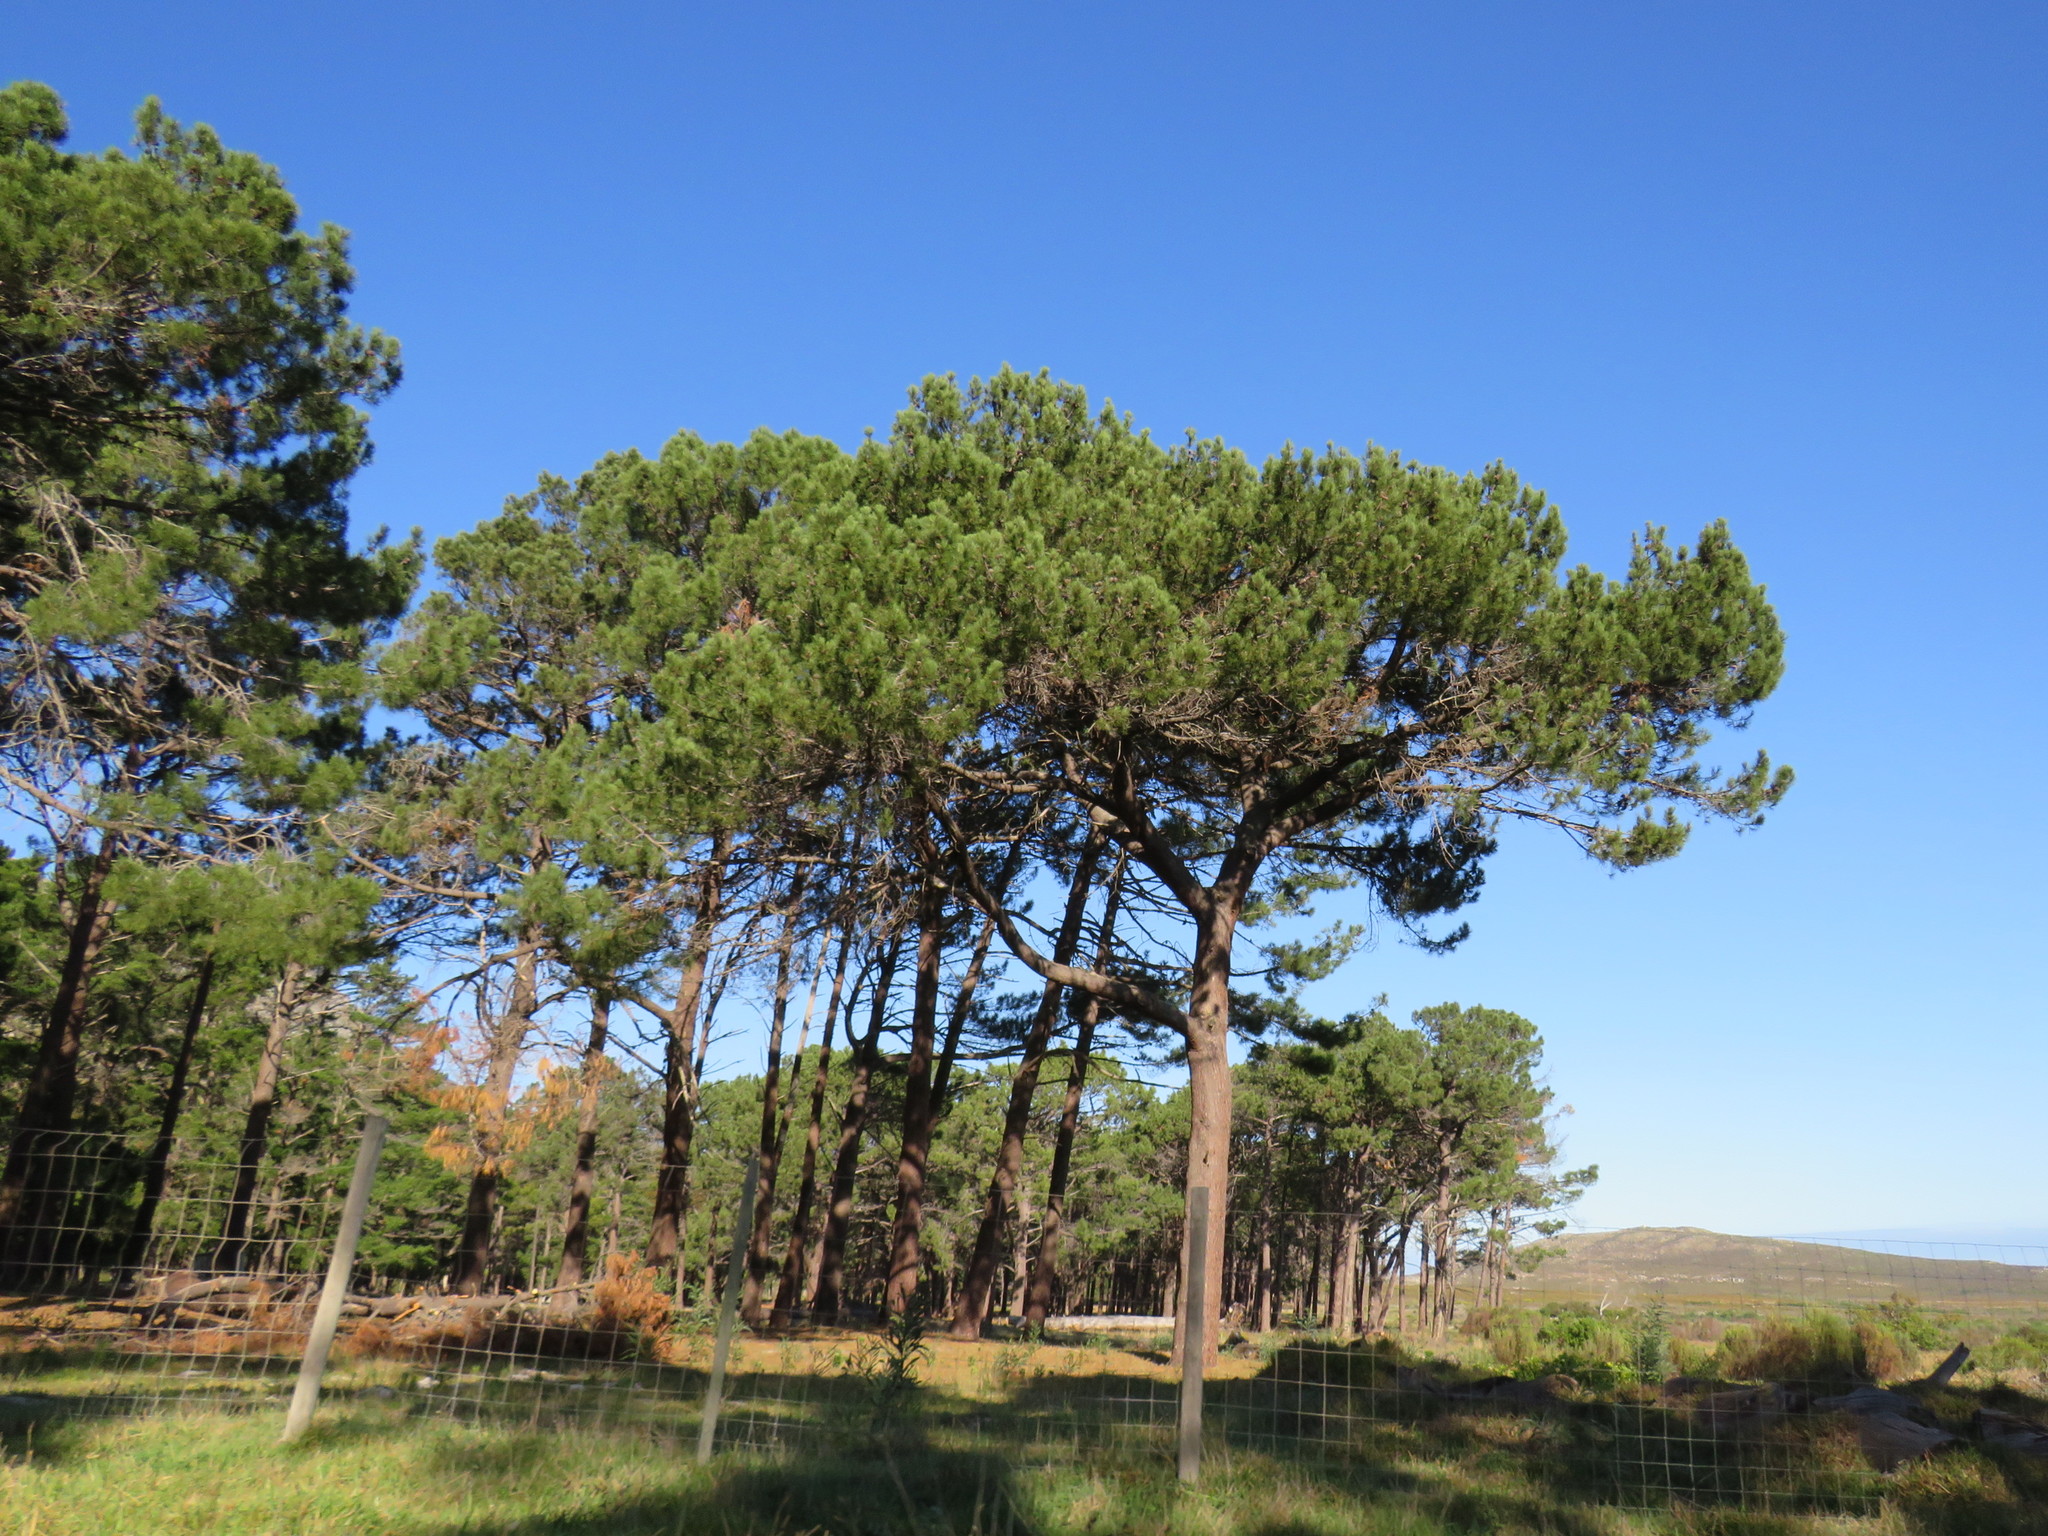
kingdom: Plantae
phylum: Tracheophyta
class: Pinopsida
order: Pinales
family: Pinaceae
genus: Pinus
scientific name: Pinus pinaster
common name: Maritime pine
